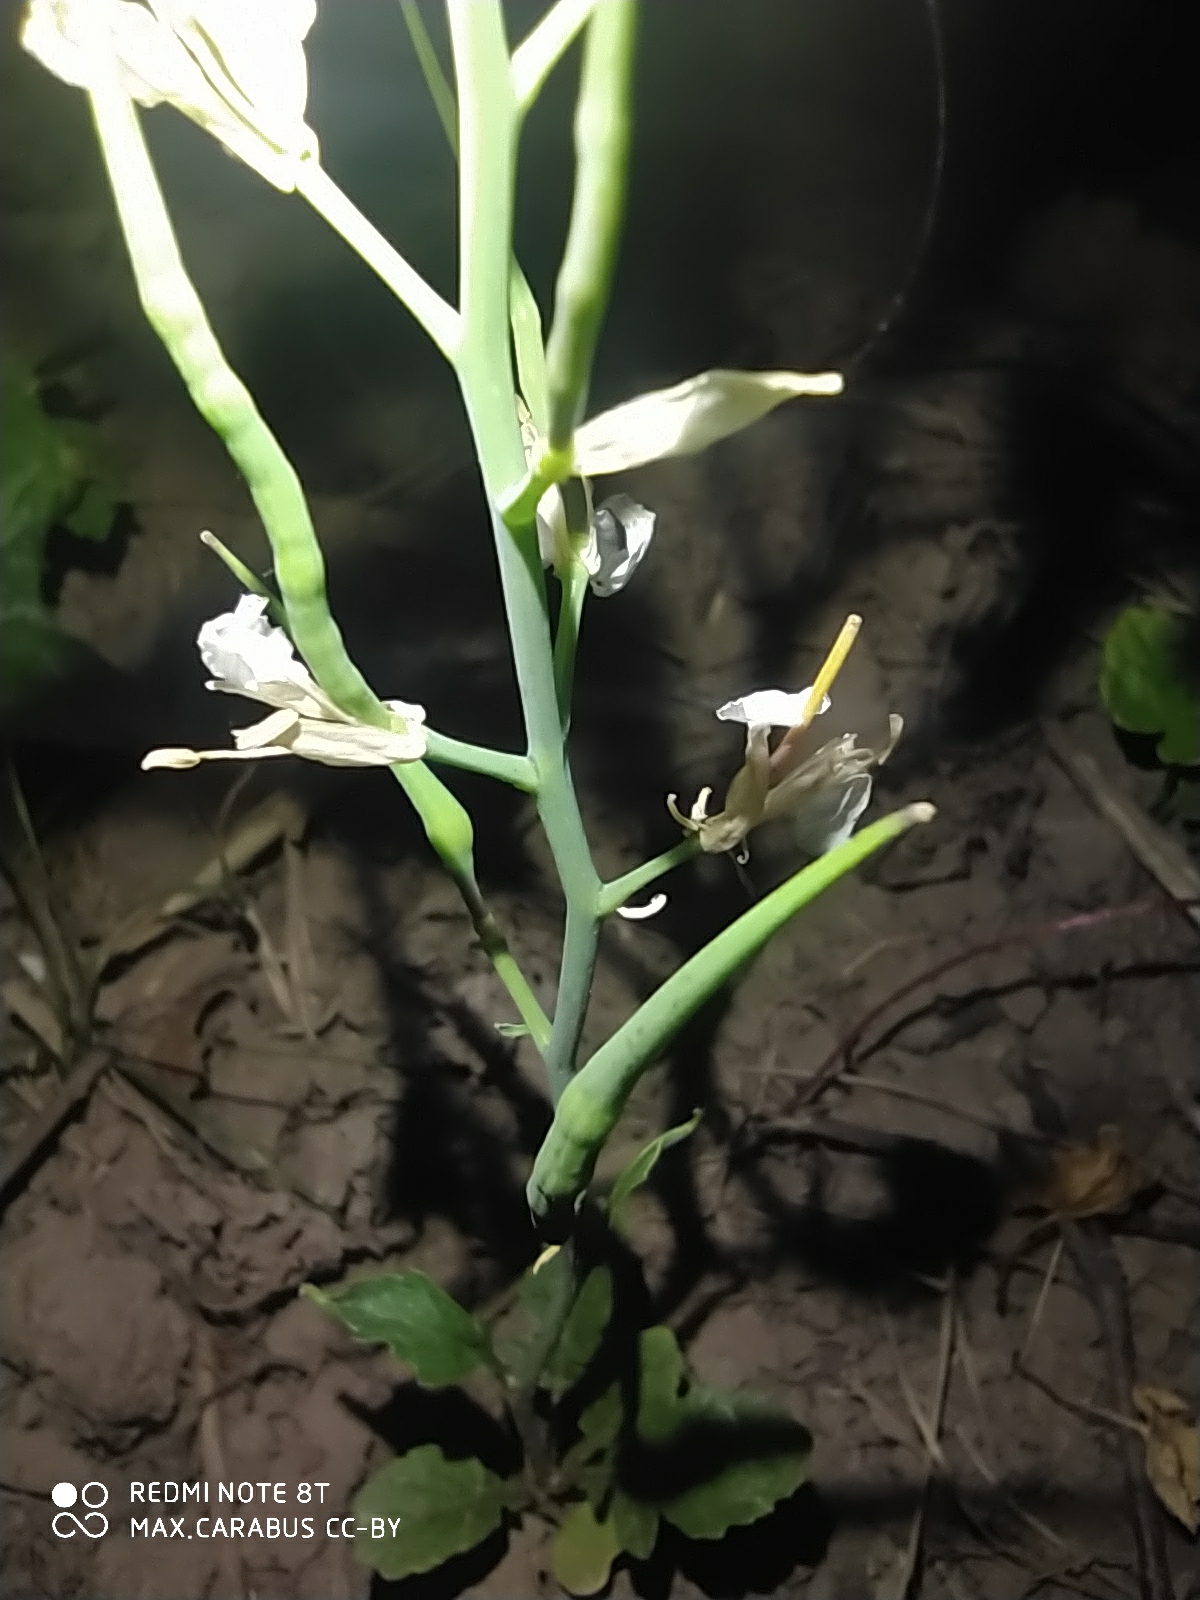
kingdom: Plantae
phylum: Tracheophyta
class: Magnoliopsida
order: Brassicales
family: Brassicaceae
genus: Raphanus
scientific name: Raphanus raphanistrum
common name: Wild radish
